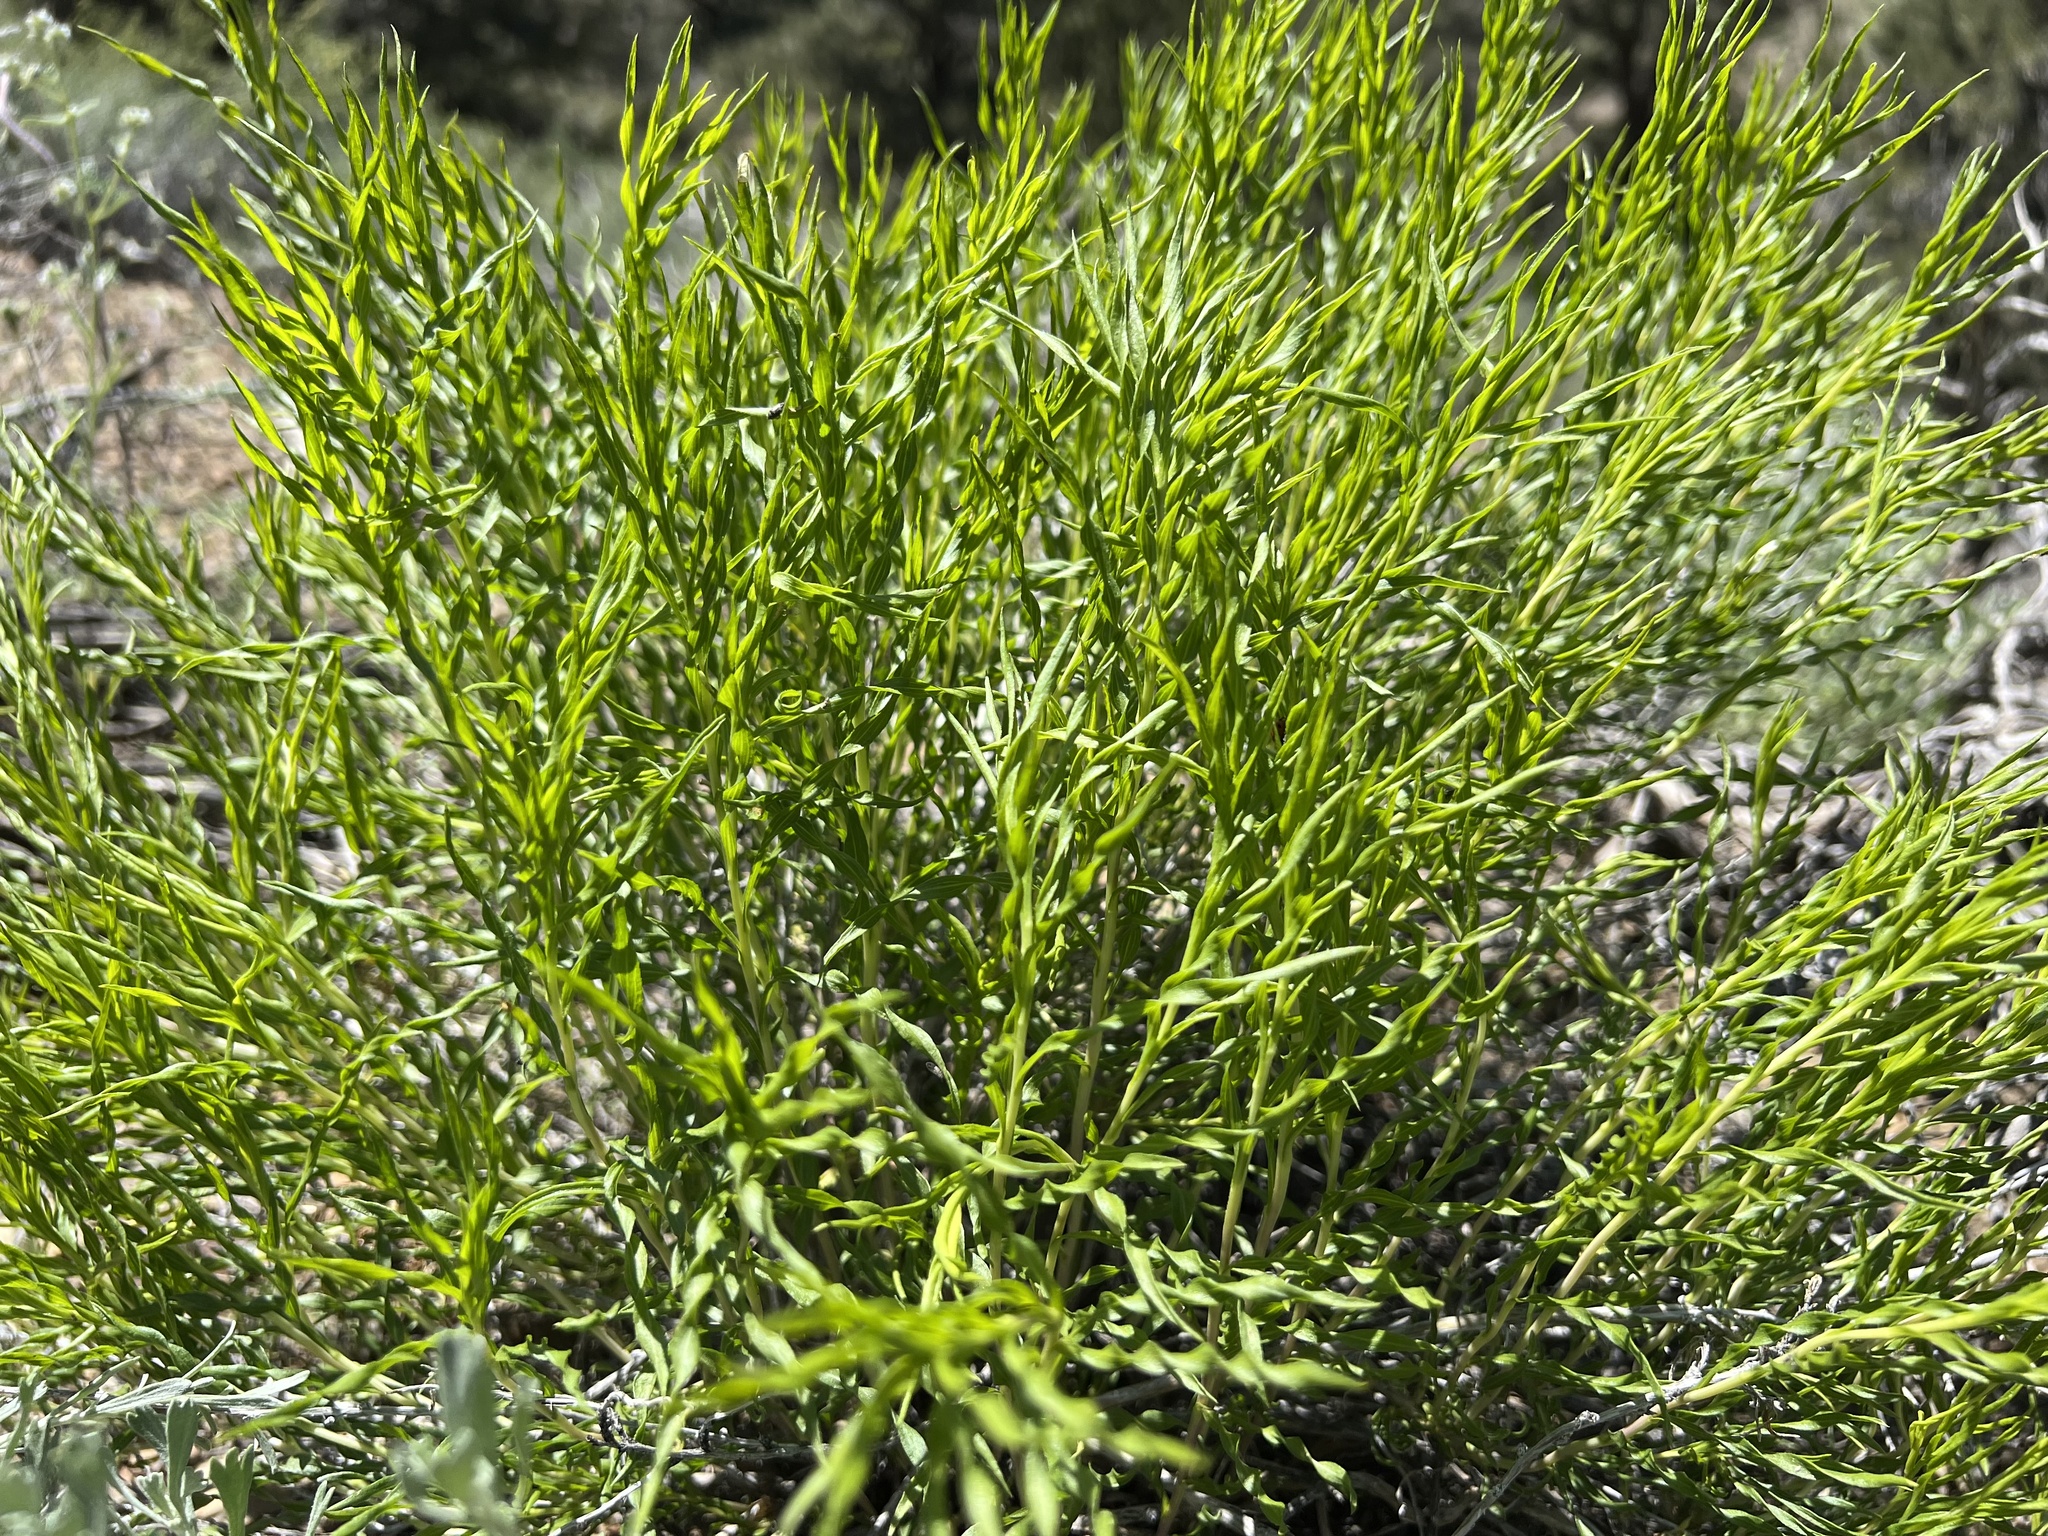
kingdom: Plantae
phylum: Tracheophyta
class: Magnoliopsida
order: Asterales
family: Asteraceae
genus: Chrysothamnus
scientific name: Chrysothamnus viscidiflorus
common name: Yellow rabbitbrush
